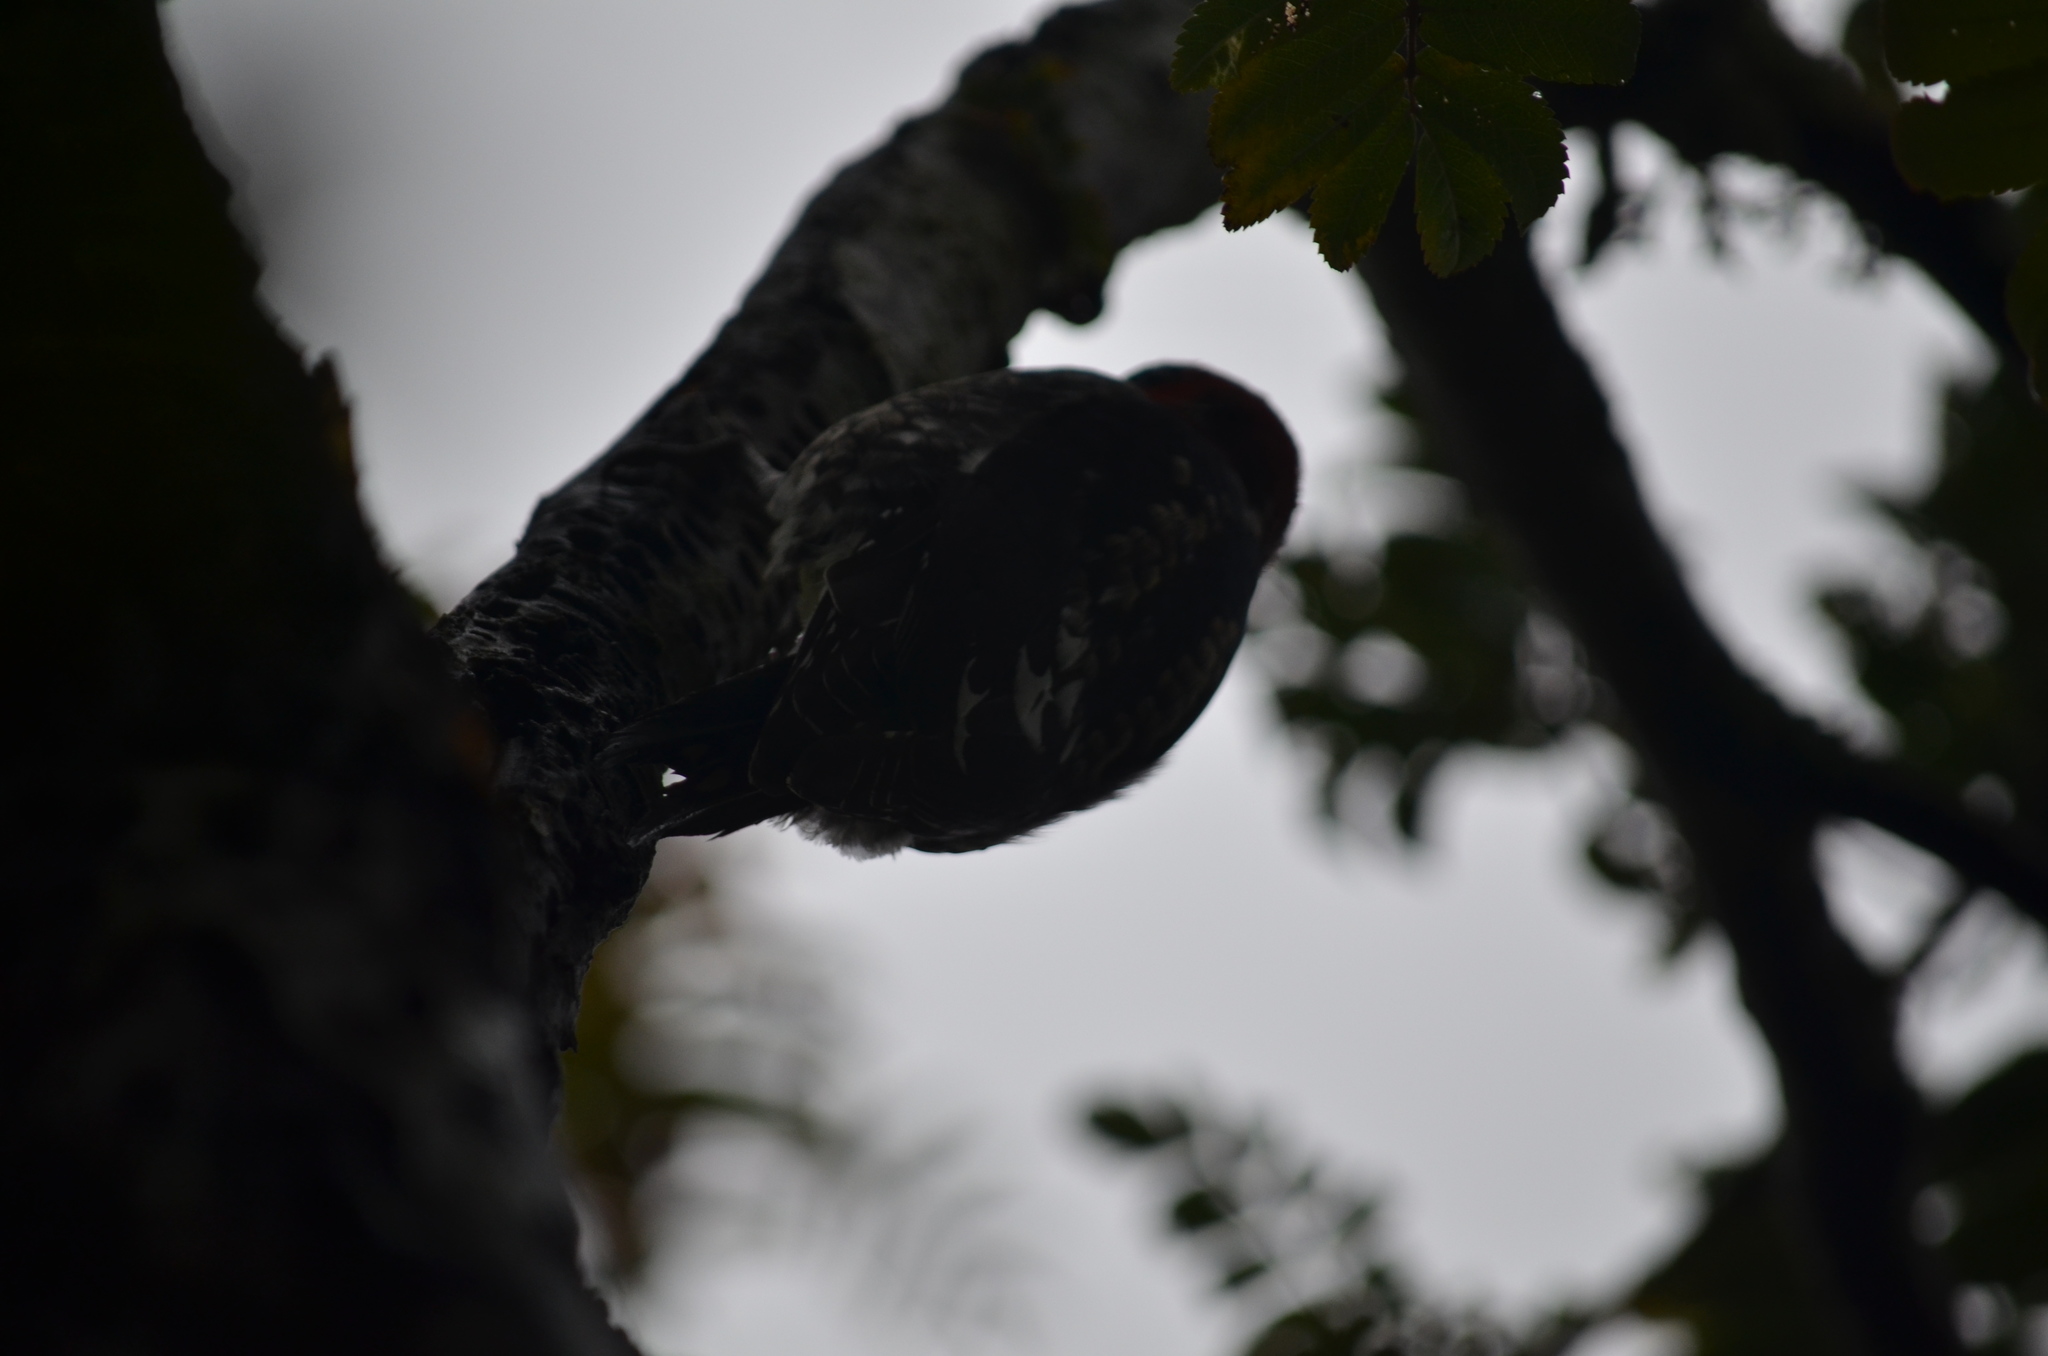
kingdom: Animalia
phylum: Chordata
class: Aves
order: Piciformes
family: Picidae
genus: Sphyrapicus
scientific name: Sphyrapicus ruber
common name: Red-breasted sapsucker
